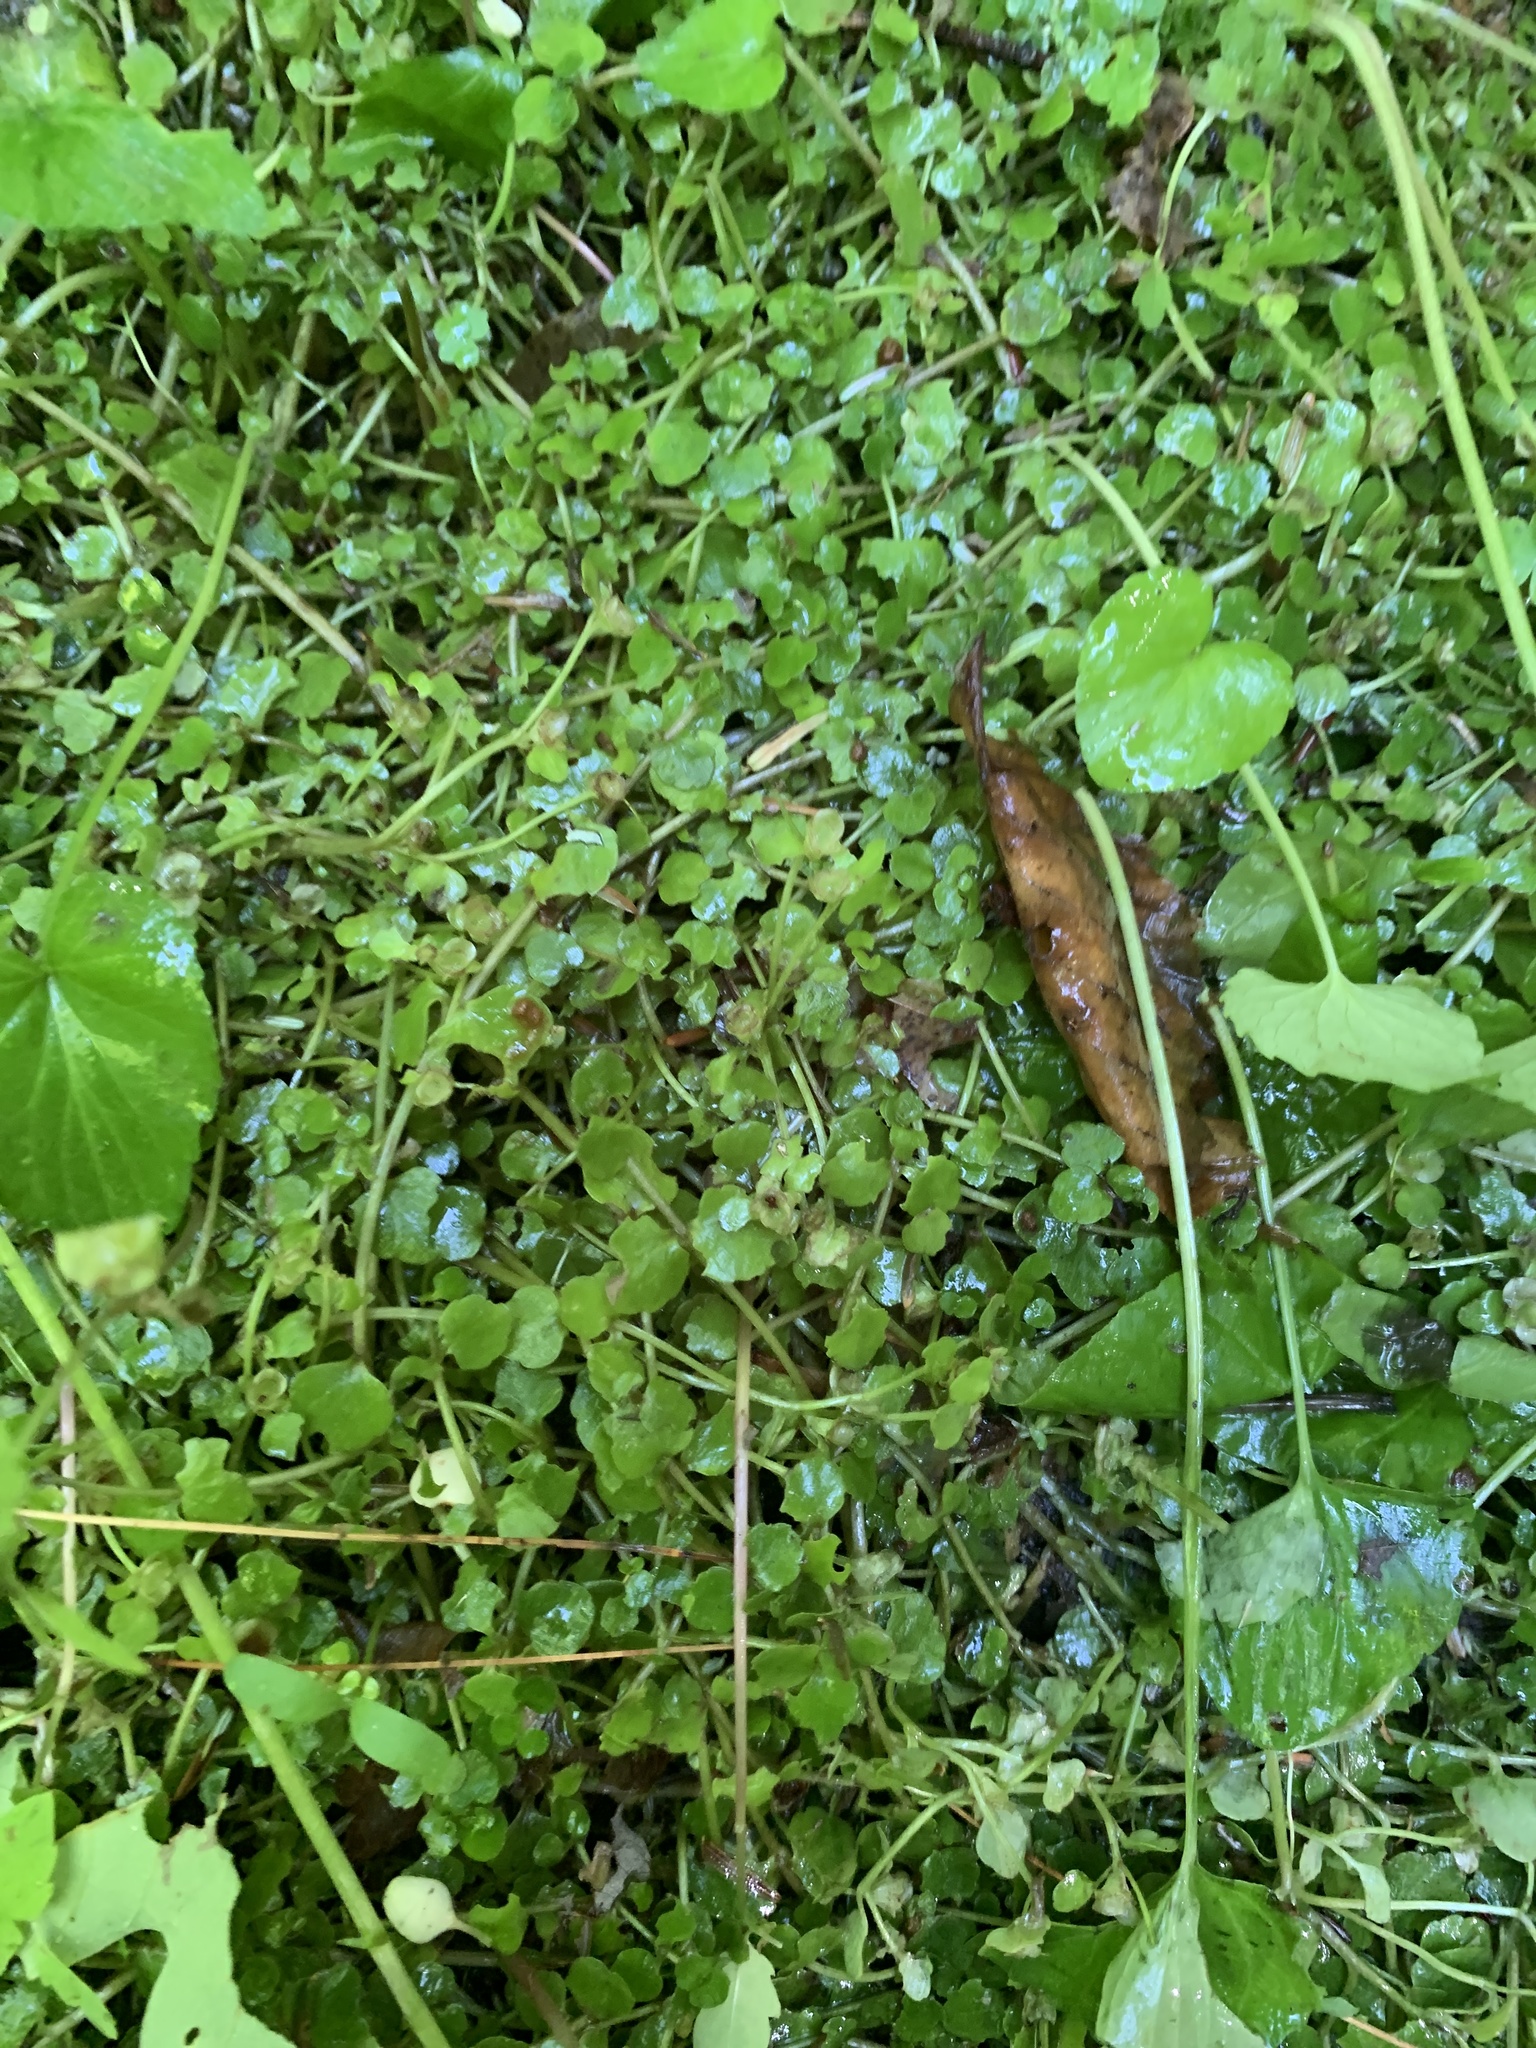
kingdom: Plantae
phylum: Tracheophyta
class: Magnoliopsida
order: Saxifragales
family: Saxifragaceae
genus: Chrysosplenium
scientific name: Chrysosplenium americanum
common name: American golden-saxifrage
